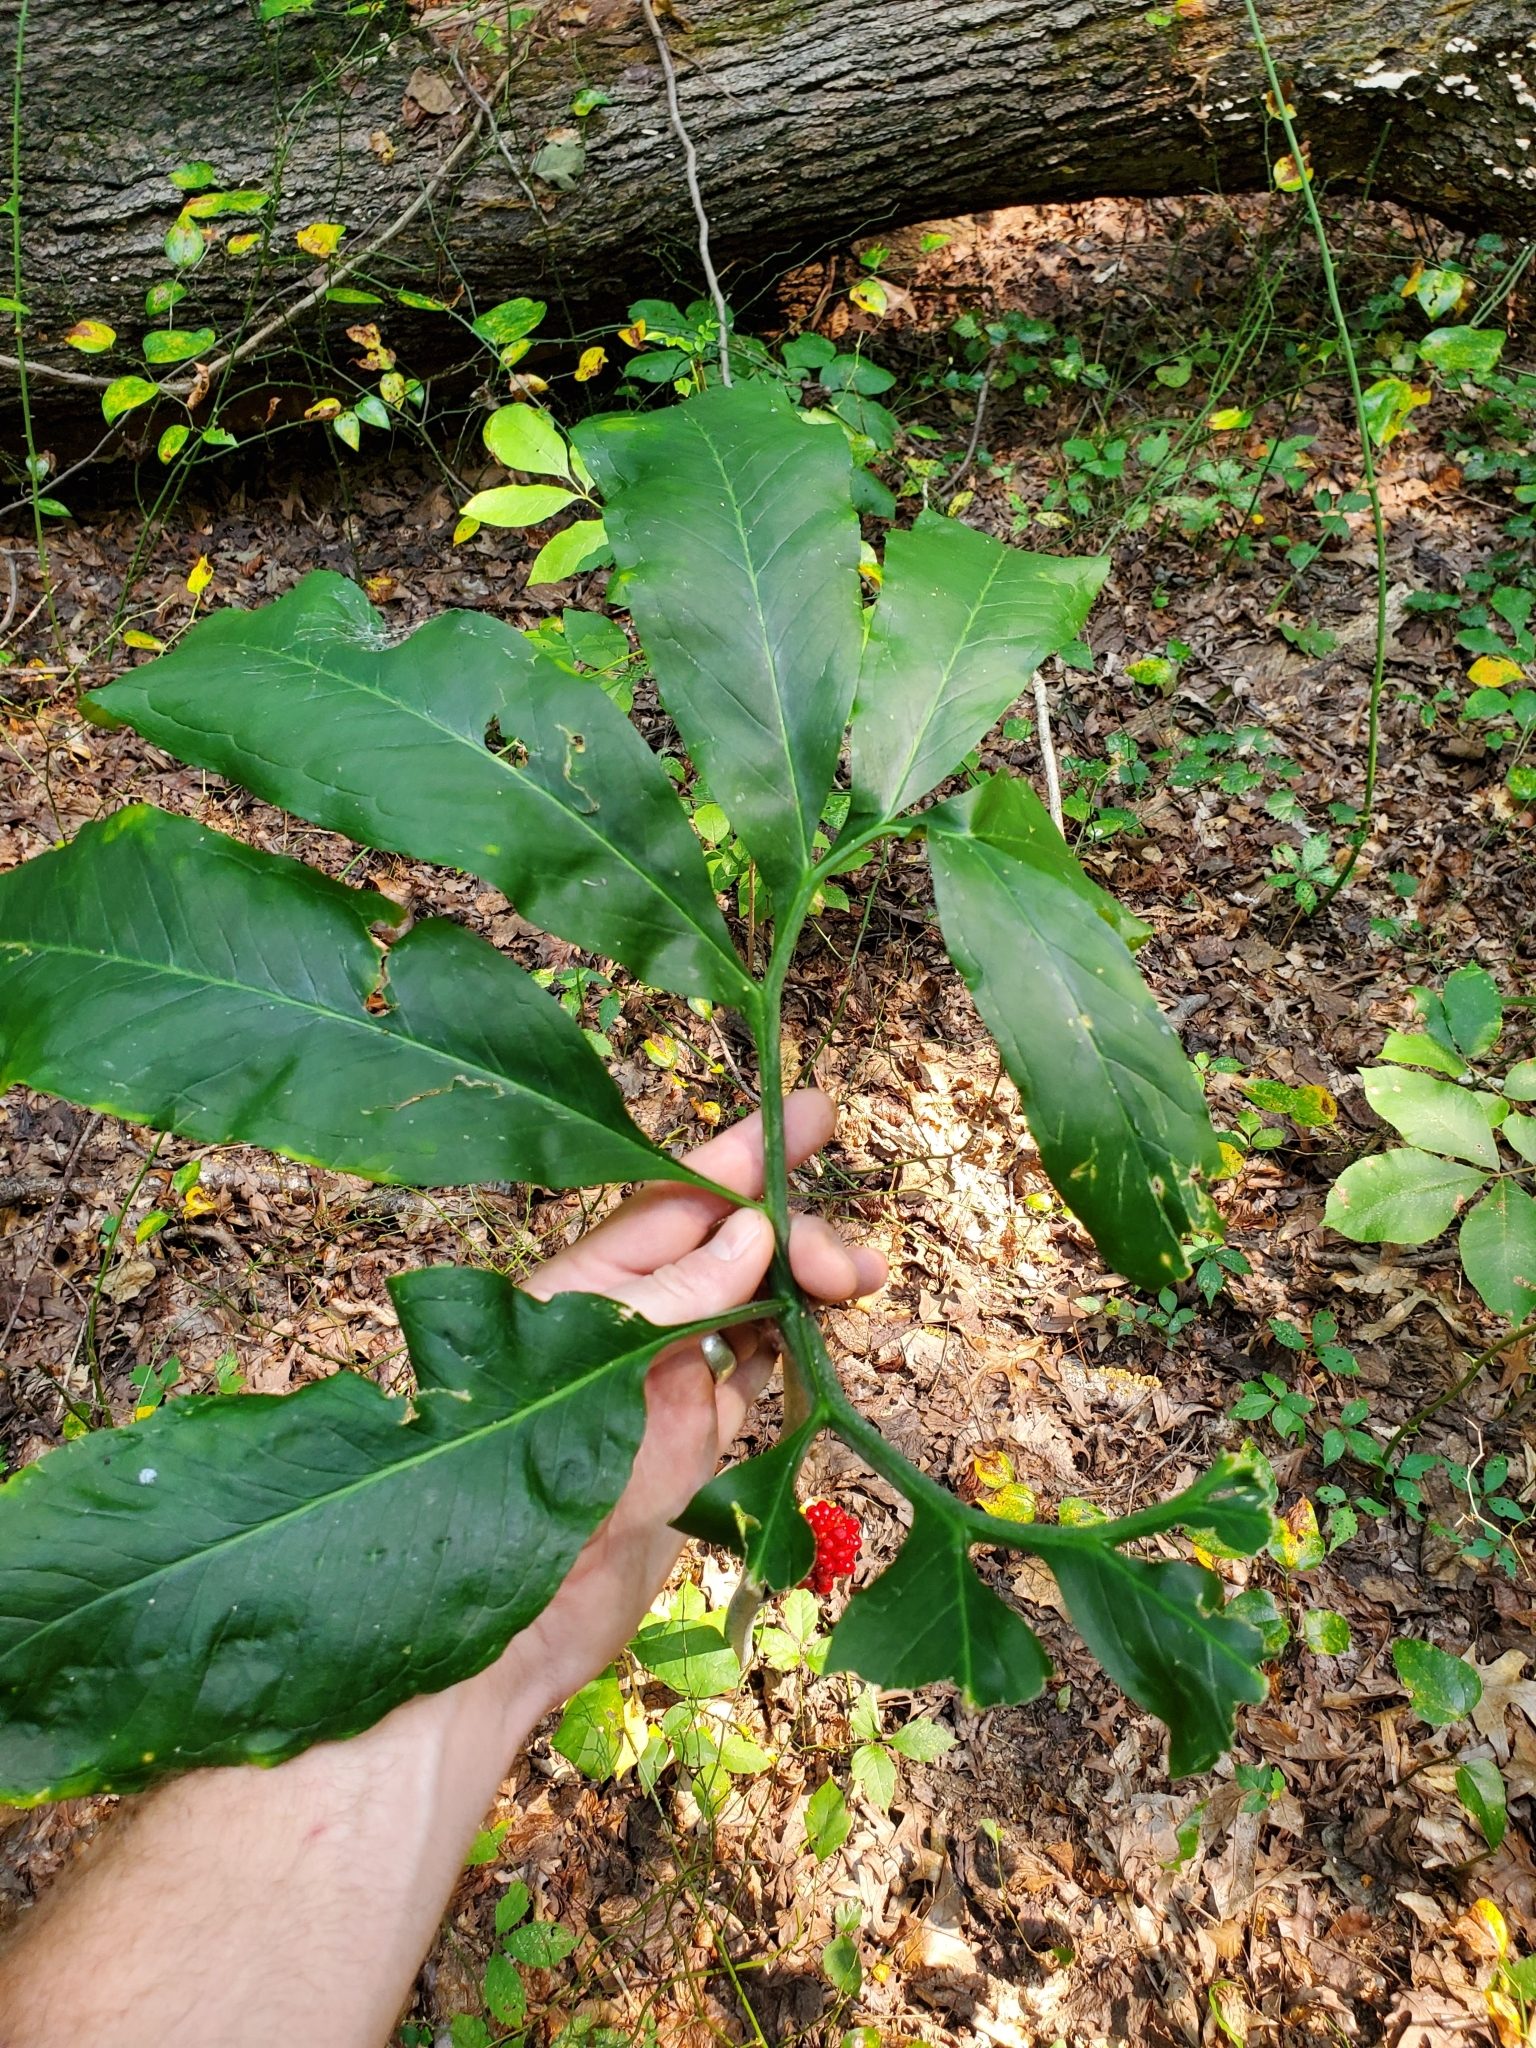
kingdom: Plantae
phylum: Tracheophyta
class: Liliopsida
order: Alismatales
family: Araceae
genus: Arisaema
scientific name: Arisaema dracontium
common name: Dragon-arum
